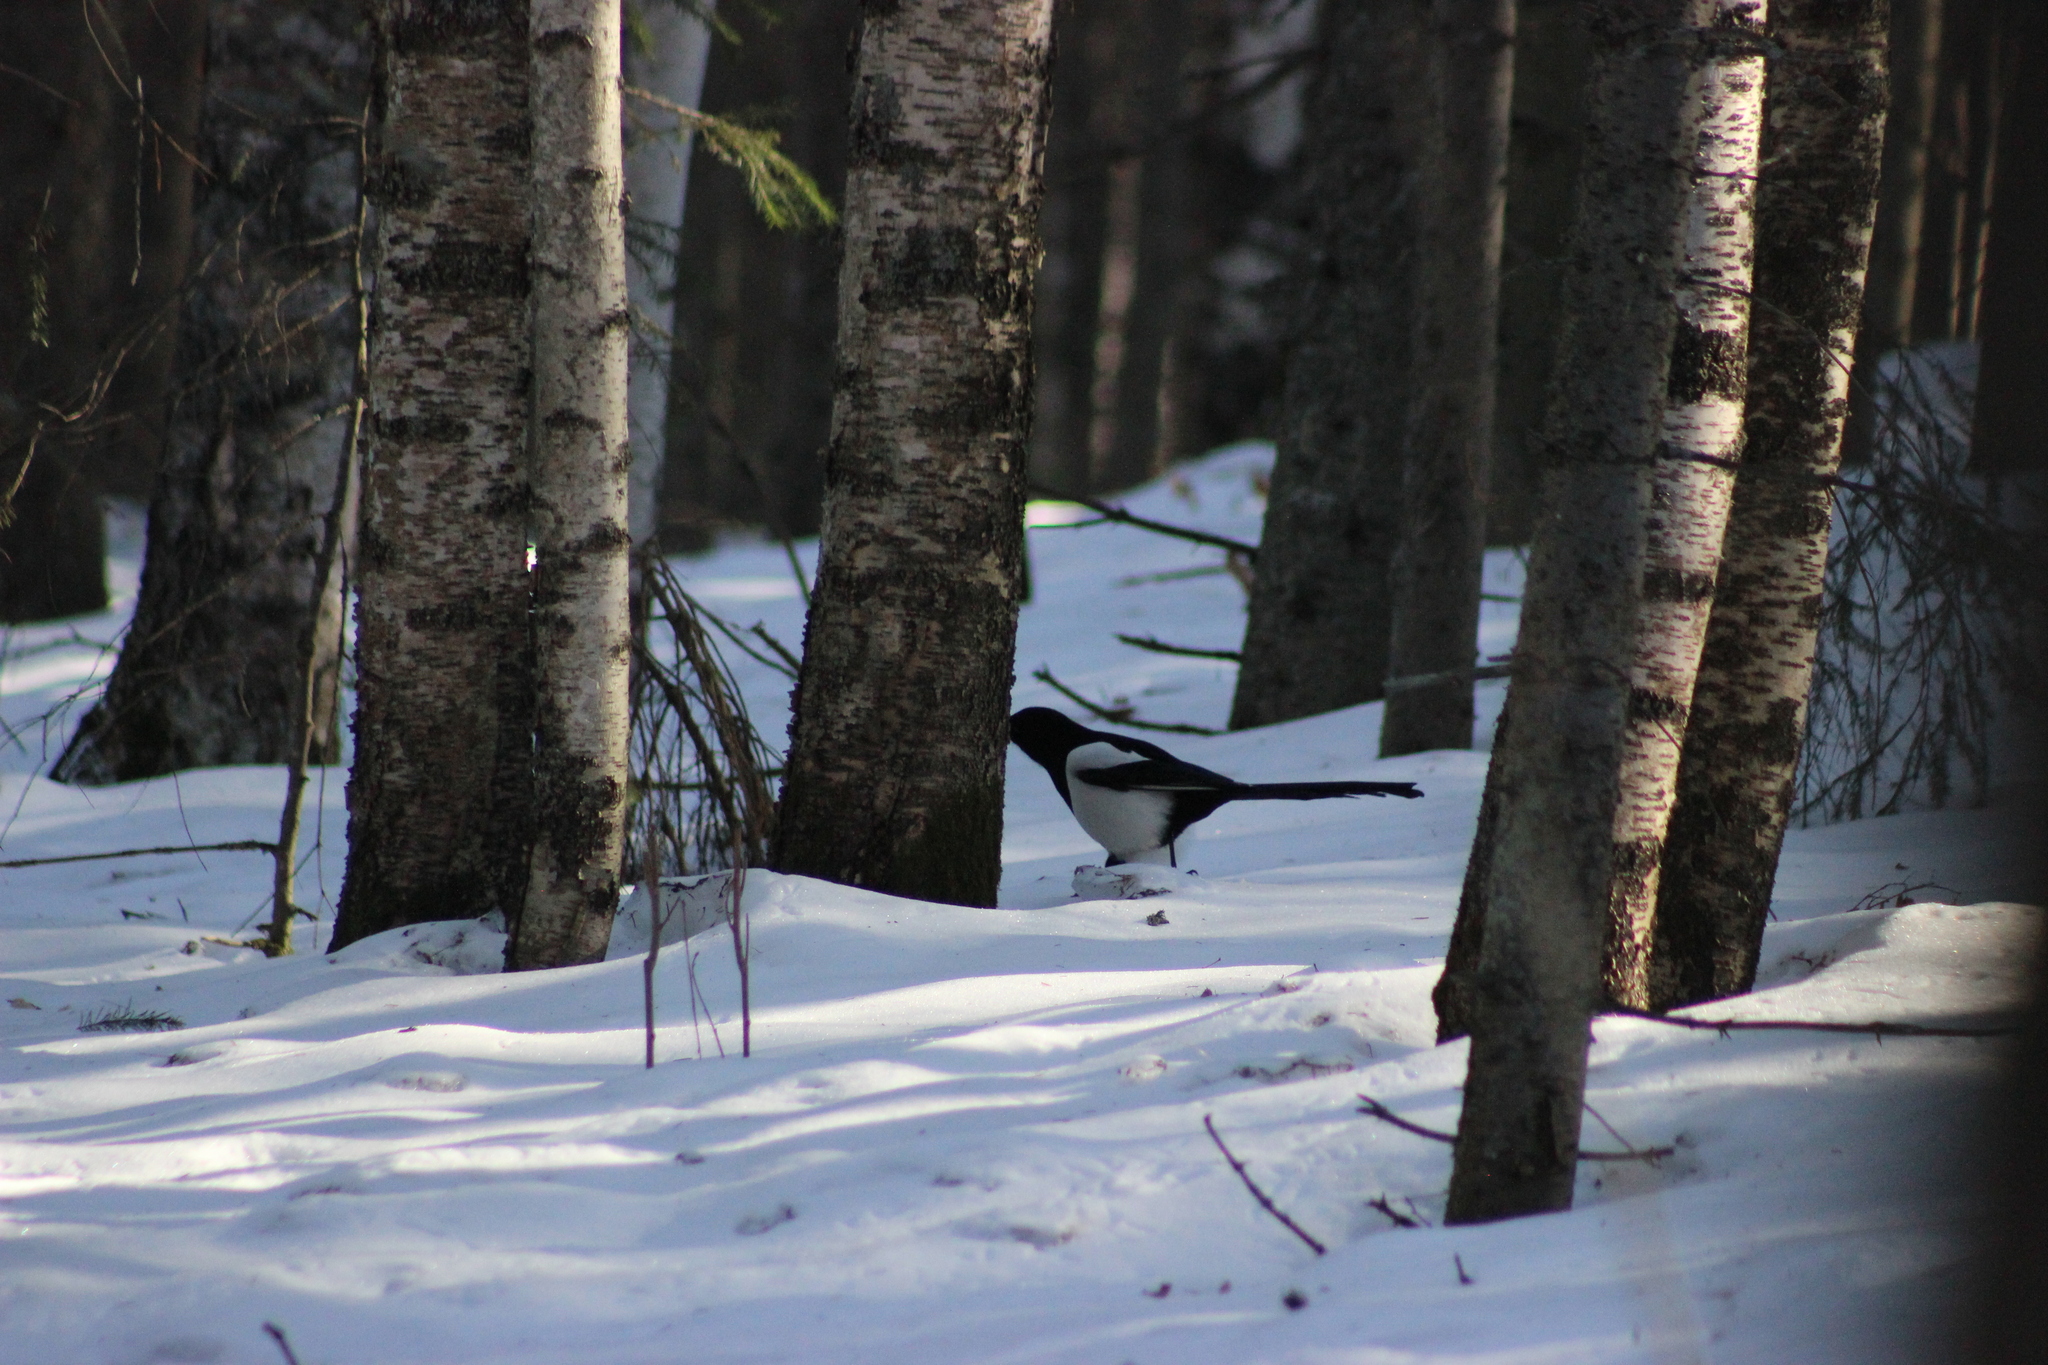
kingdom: Animalia
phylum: Chordata
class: Aves
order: Passeriformes
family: Corvidae
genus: Pica
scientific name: Pica pica
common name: Eurasian magpie
